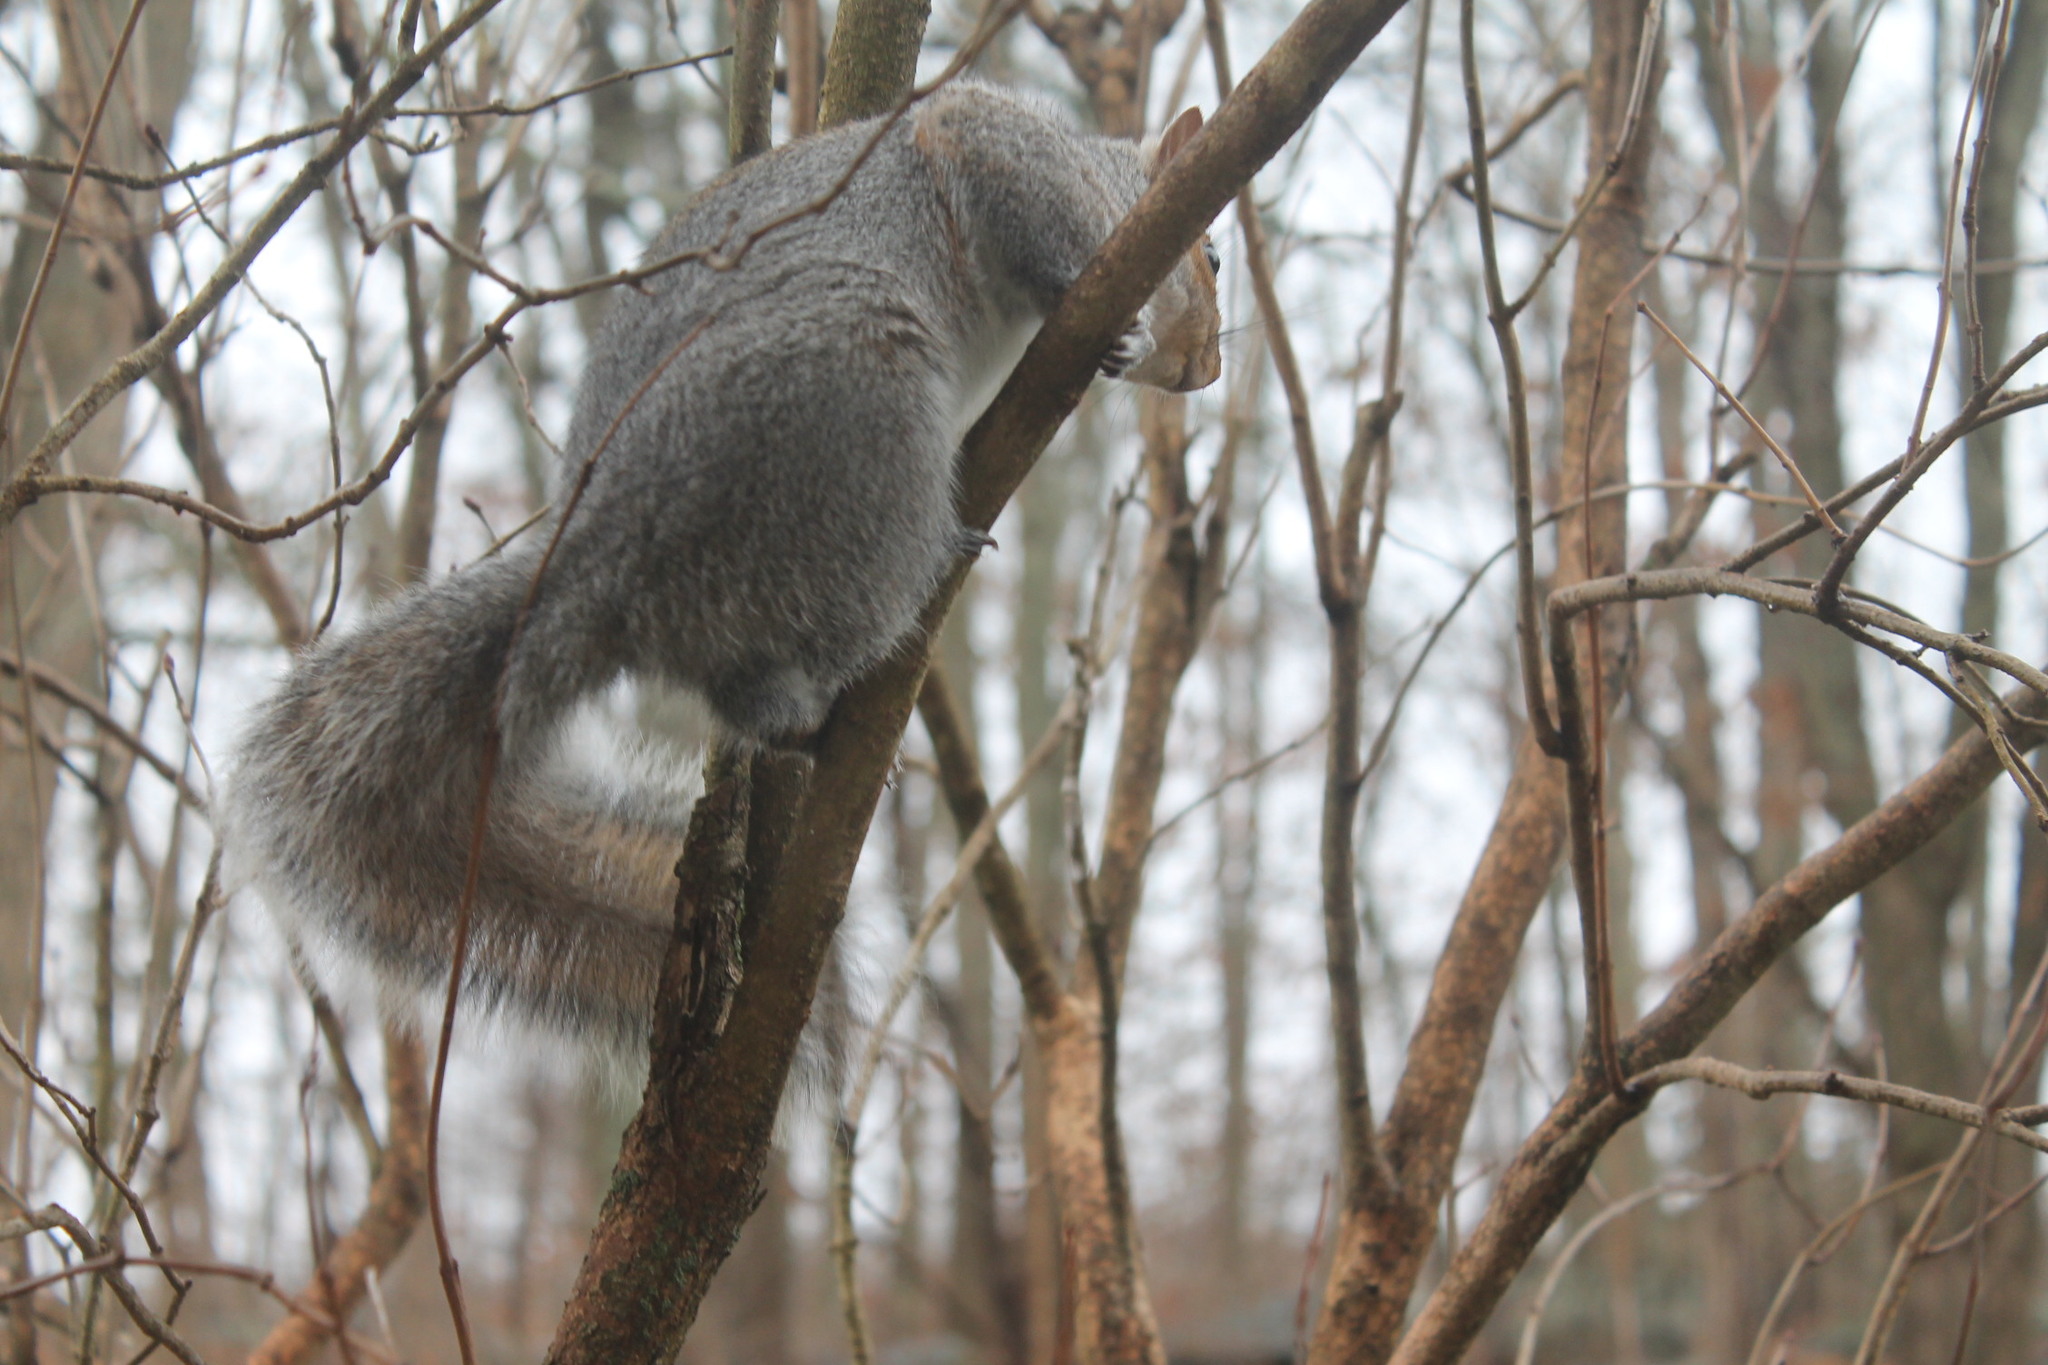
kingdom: Animalia
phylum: Chordata
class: Mammalia
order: Rodentia
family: Sciuridae
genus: Sciurus
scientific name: Sciurus carolinensis
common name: Eastern gray squirrel
